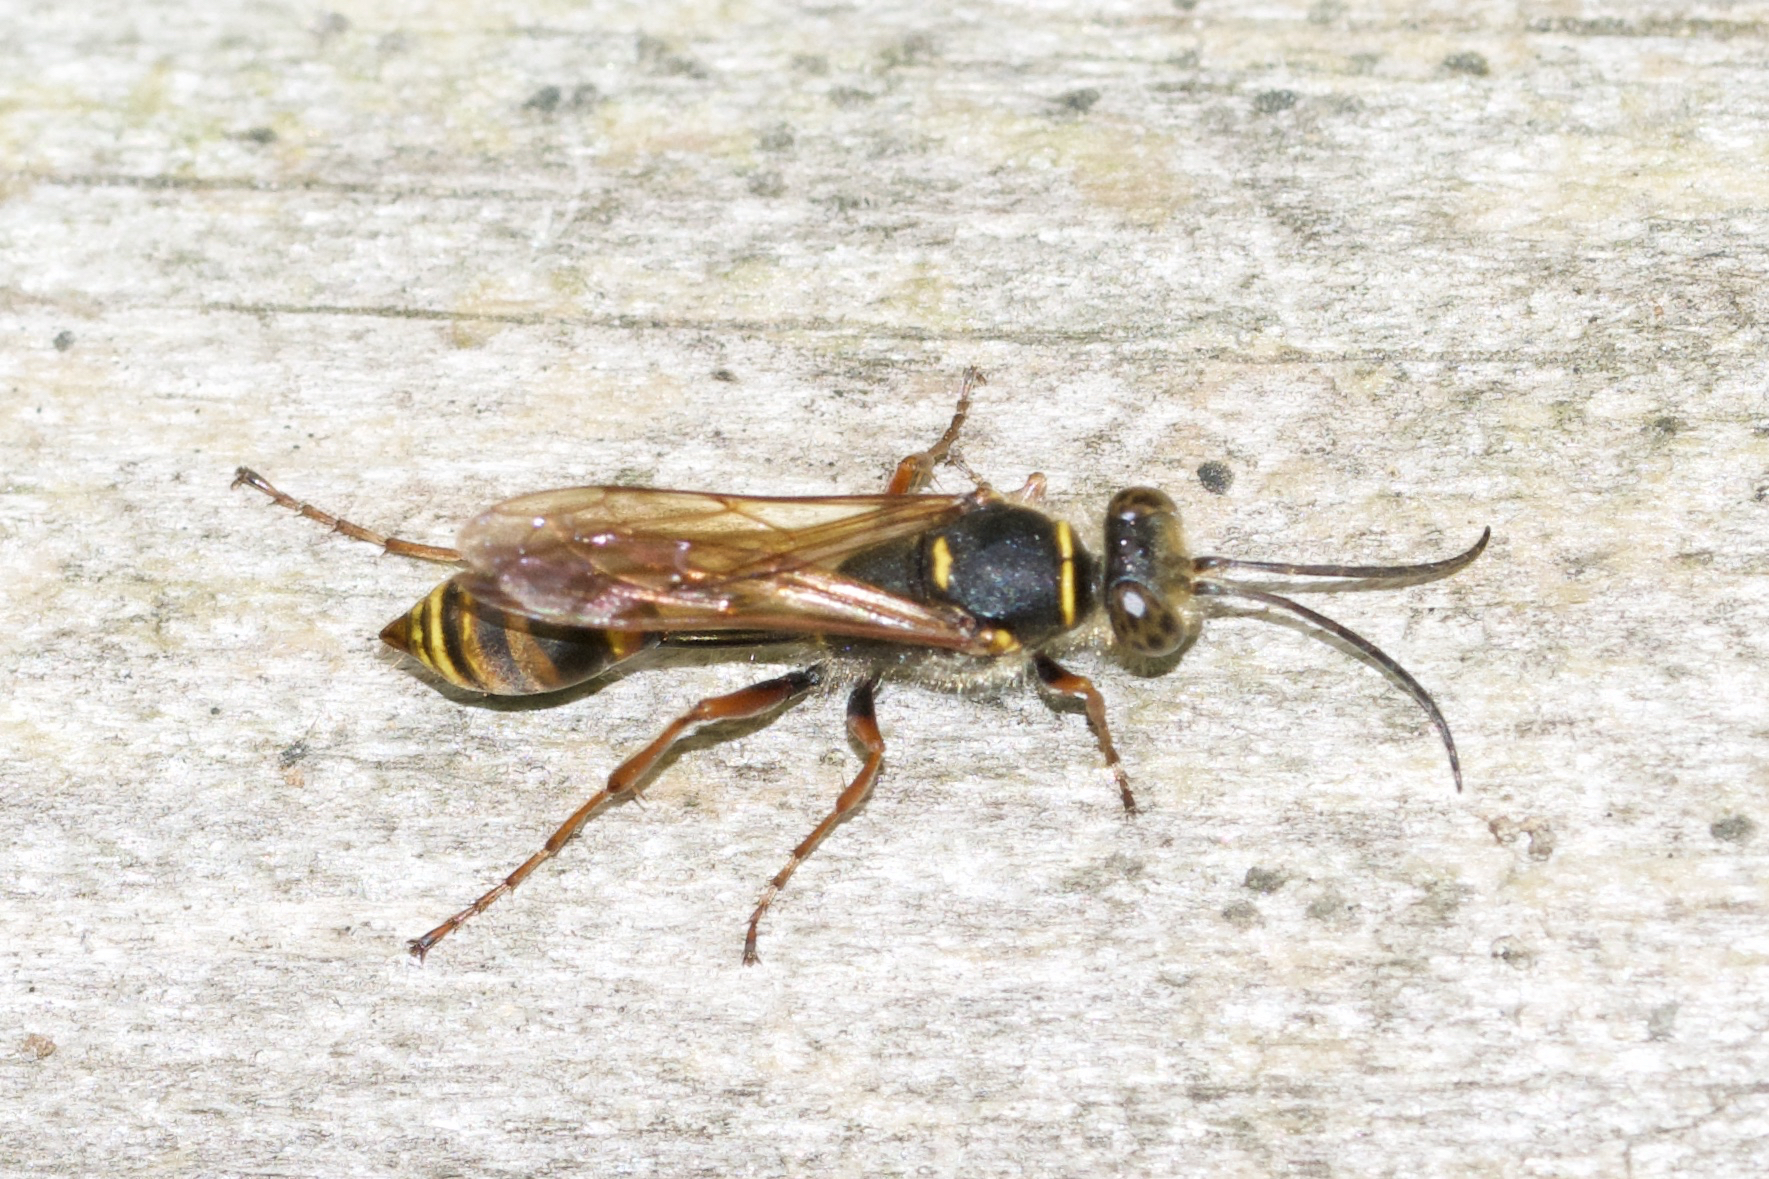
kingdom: Animalia
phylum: Arthropoda
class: Insecta
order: Hymenoptera
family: Sphecidae
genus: Sceliphron
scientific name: Sceliphron curvatum
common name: Pèlopèe
